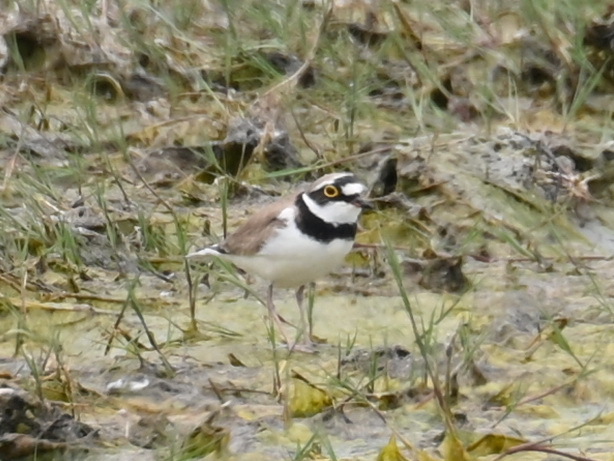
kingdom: Animalia
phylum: Chordata
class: Aves
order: Charadriiformes
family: Charadriidae
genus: Charadrius
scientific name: Charadrius dubius
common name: Little ringed plover
